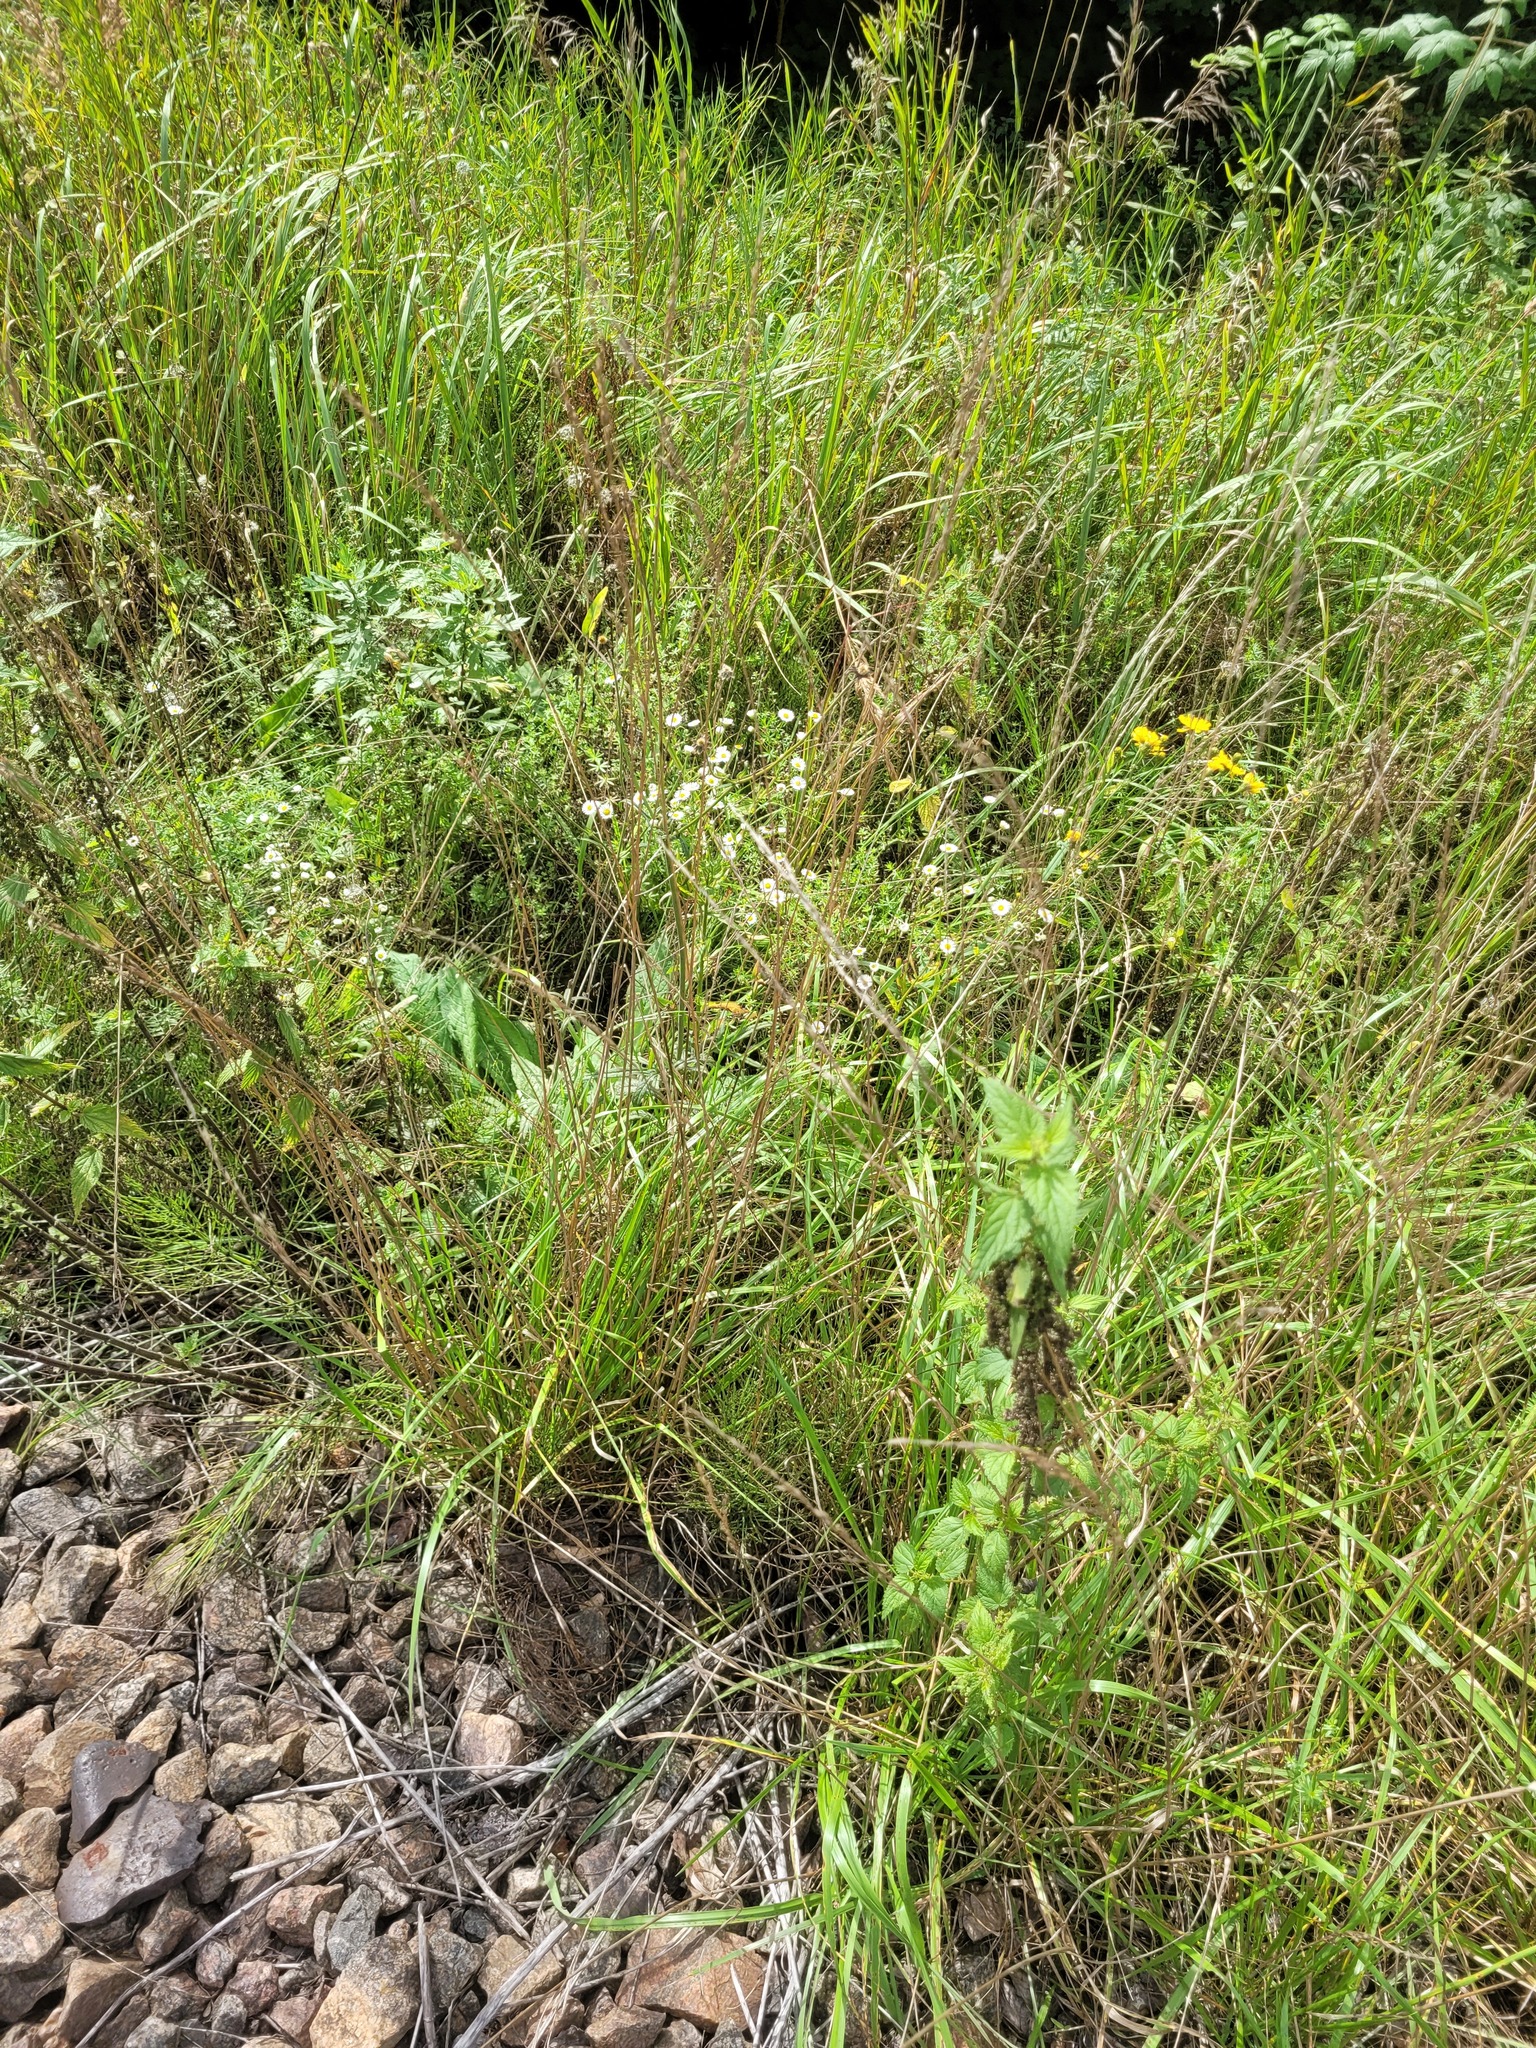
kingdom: Plantae
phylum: Tracheophyta
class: Magnoliopsida
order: Asterales
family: Asteraceae
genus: Erigeron
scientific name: Erigeron annuus
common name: Tall fleabane
